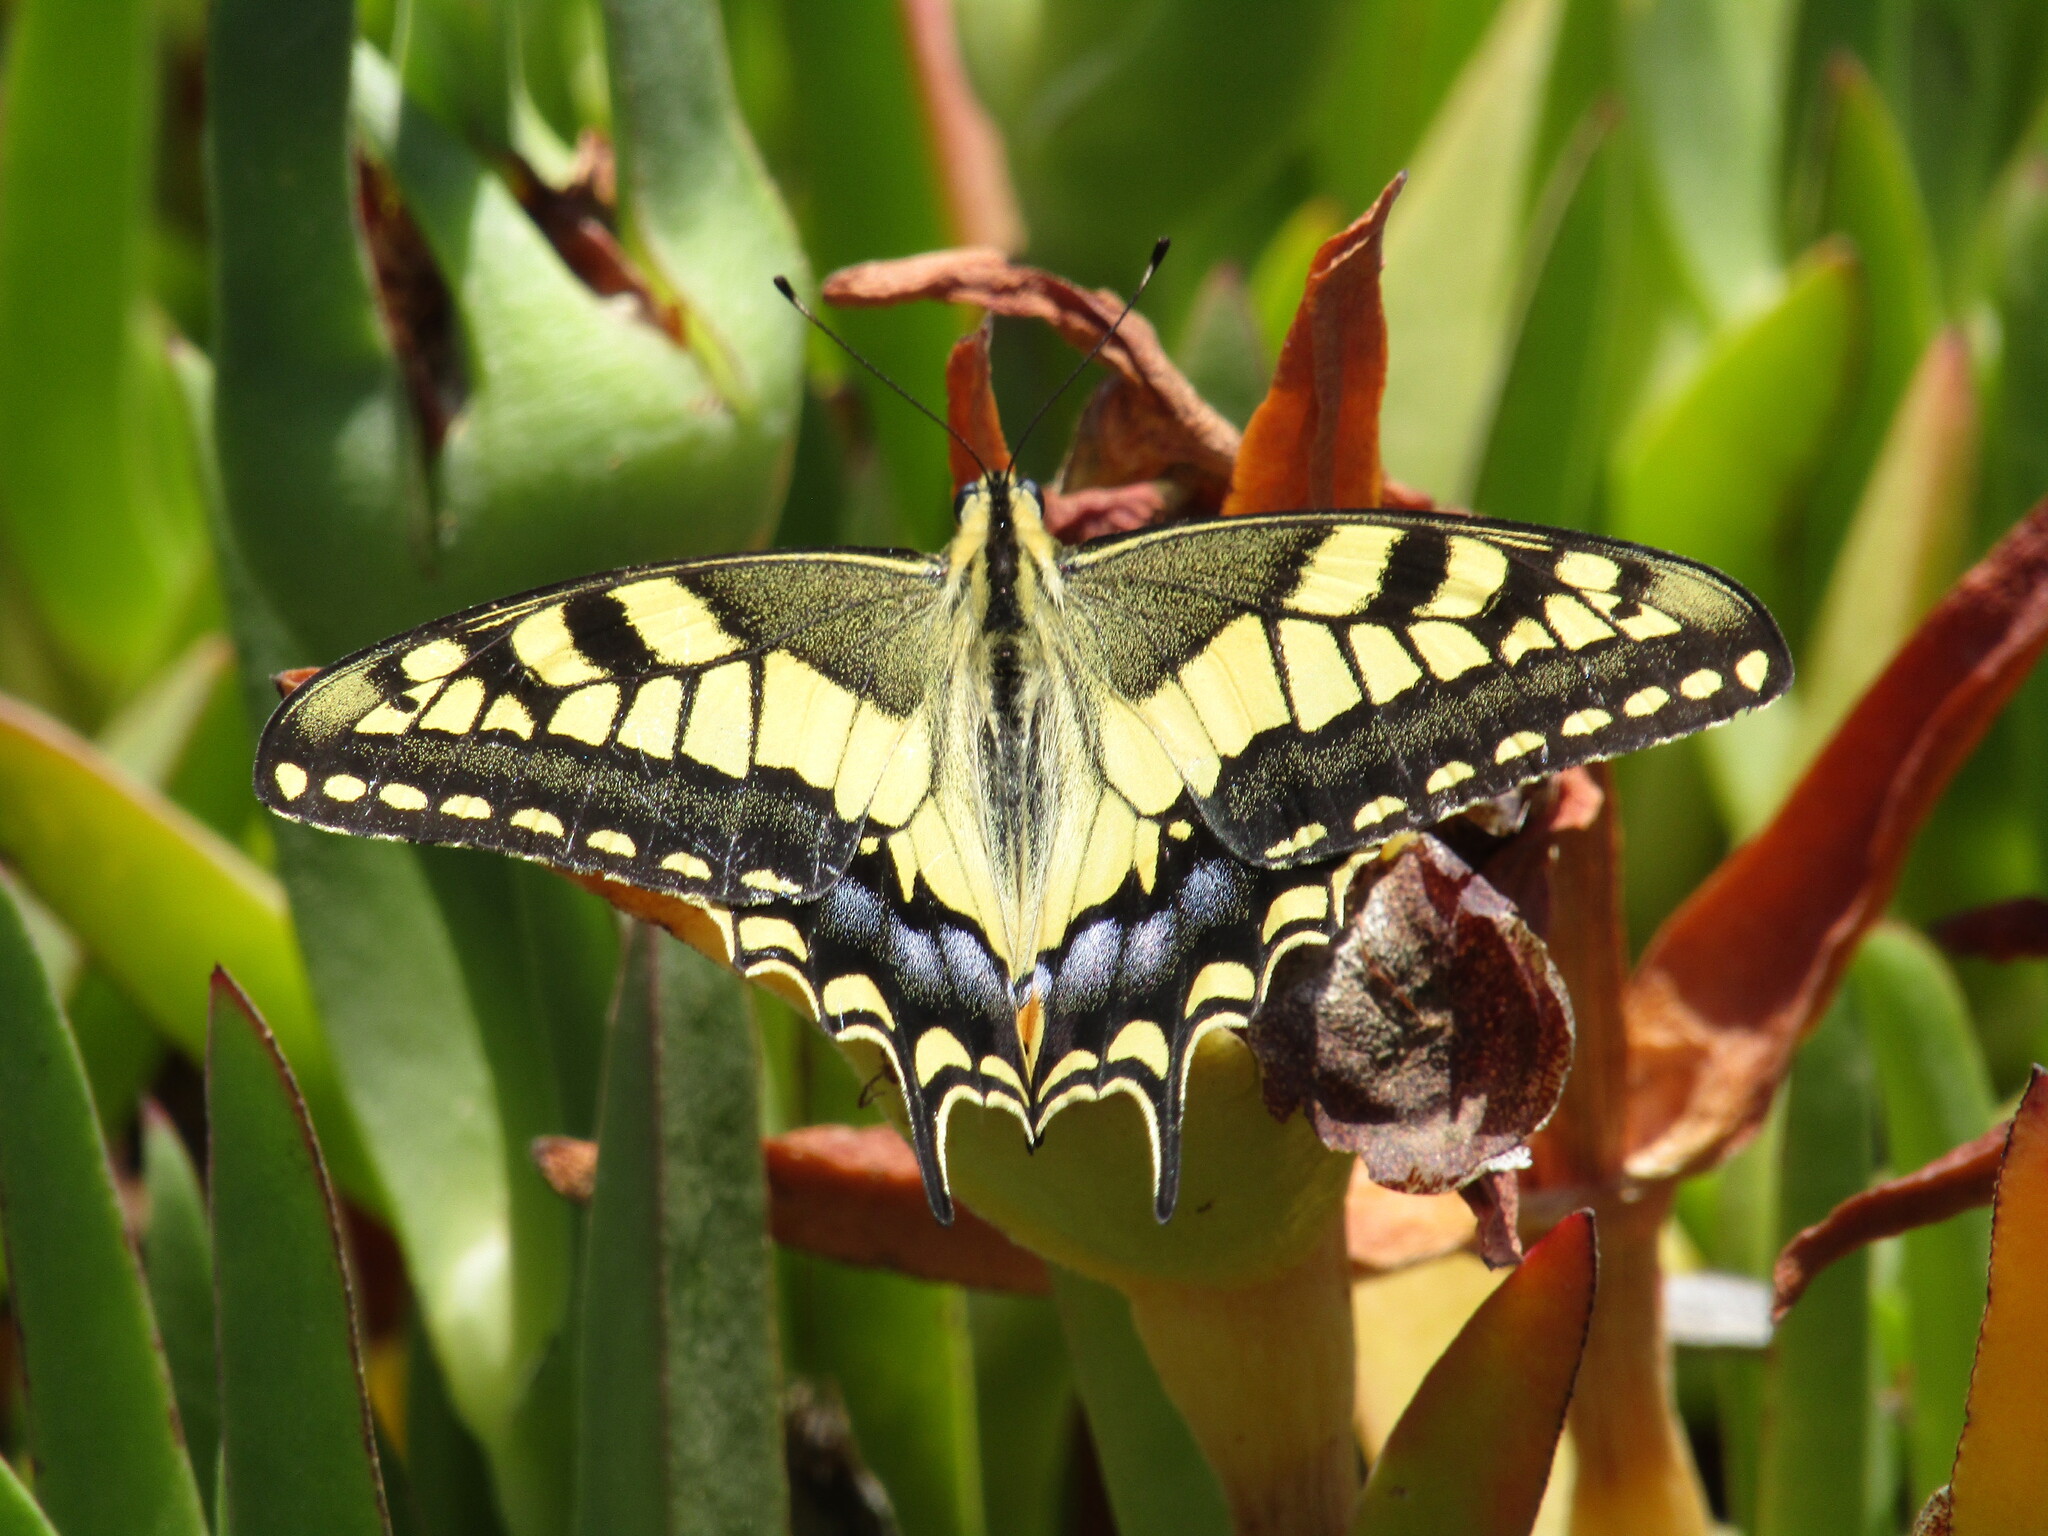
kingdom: Animalia
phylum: Arthropoda
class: Insecta
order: Lepidoptera
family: Papilionidae
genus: Papilio
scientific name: Papilio machaon
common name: Swallowtail
